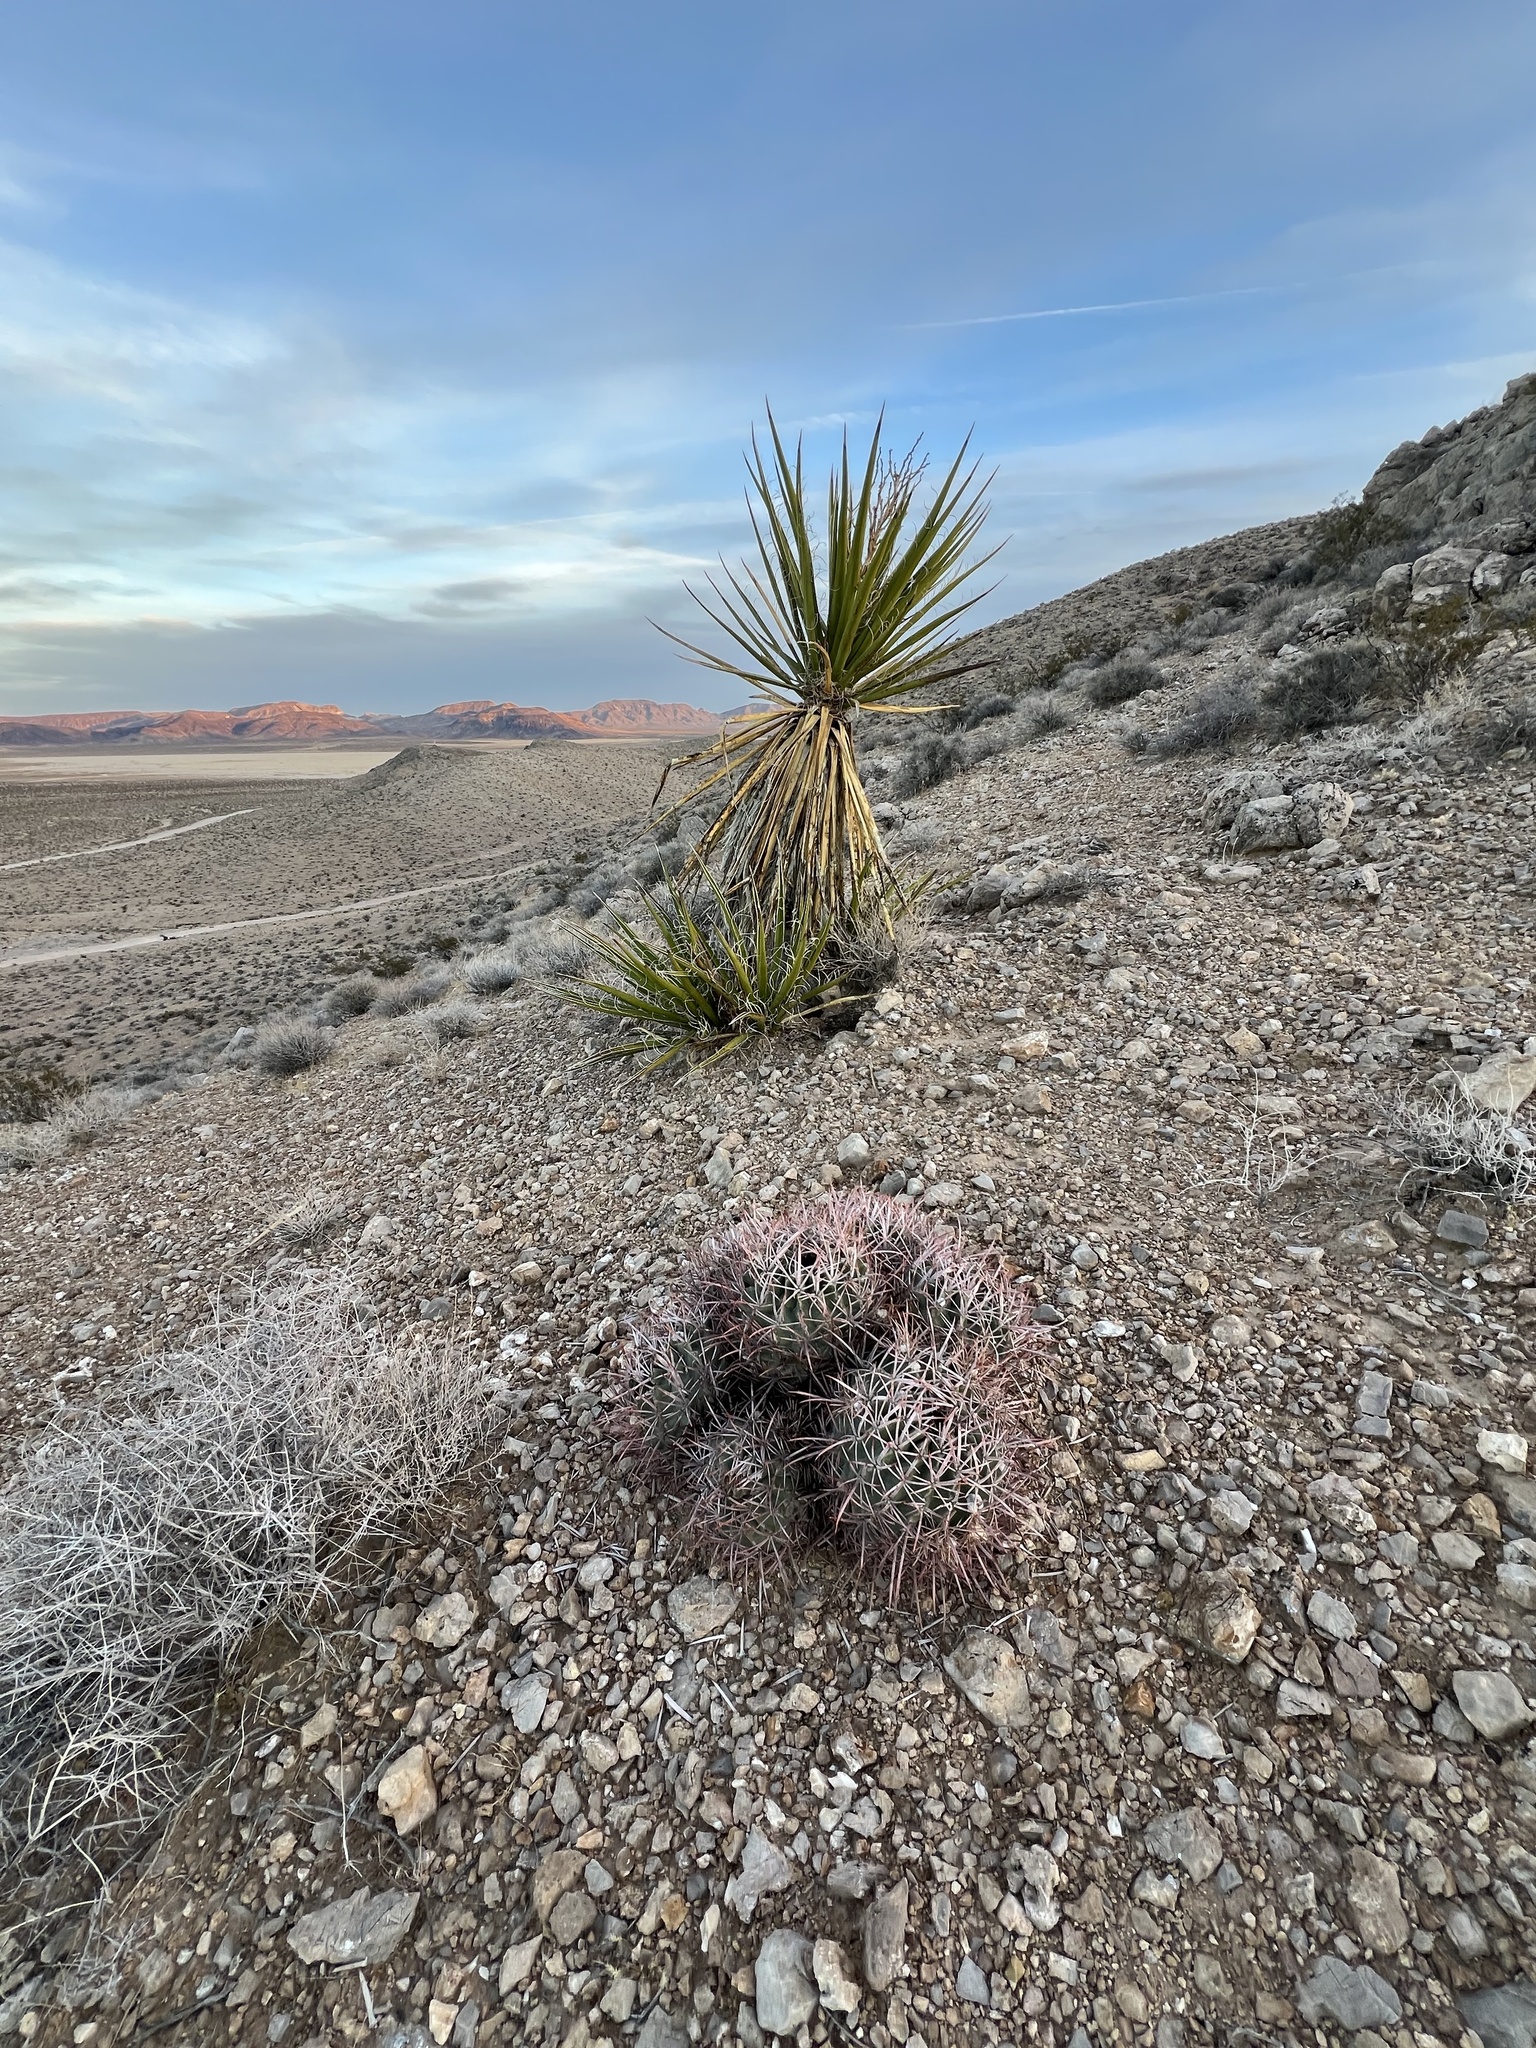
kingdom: Plantae
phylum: Tracheophyta
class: Magnoliopsida
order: Caryophyllales
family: Cactaceae
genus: Echinocactus
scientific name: Echinocactus polycephalus
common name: Cottontop cactus
